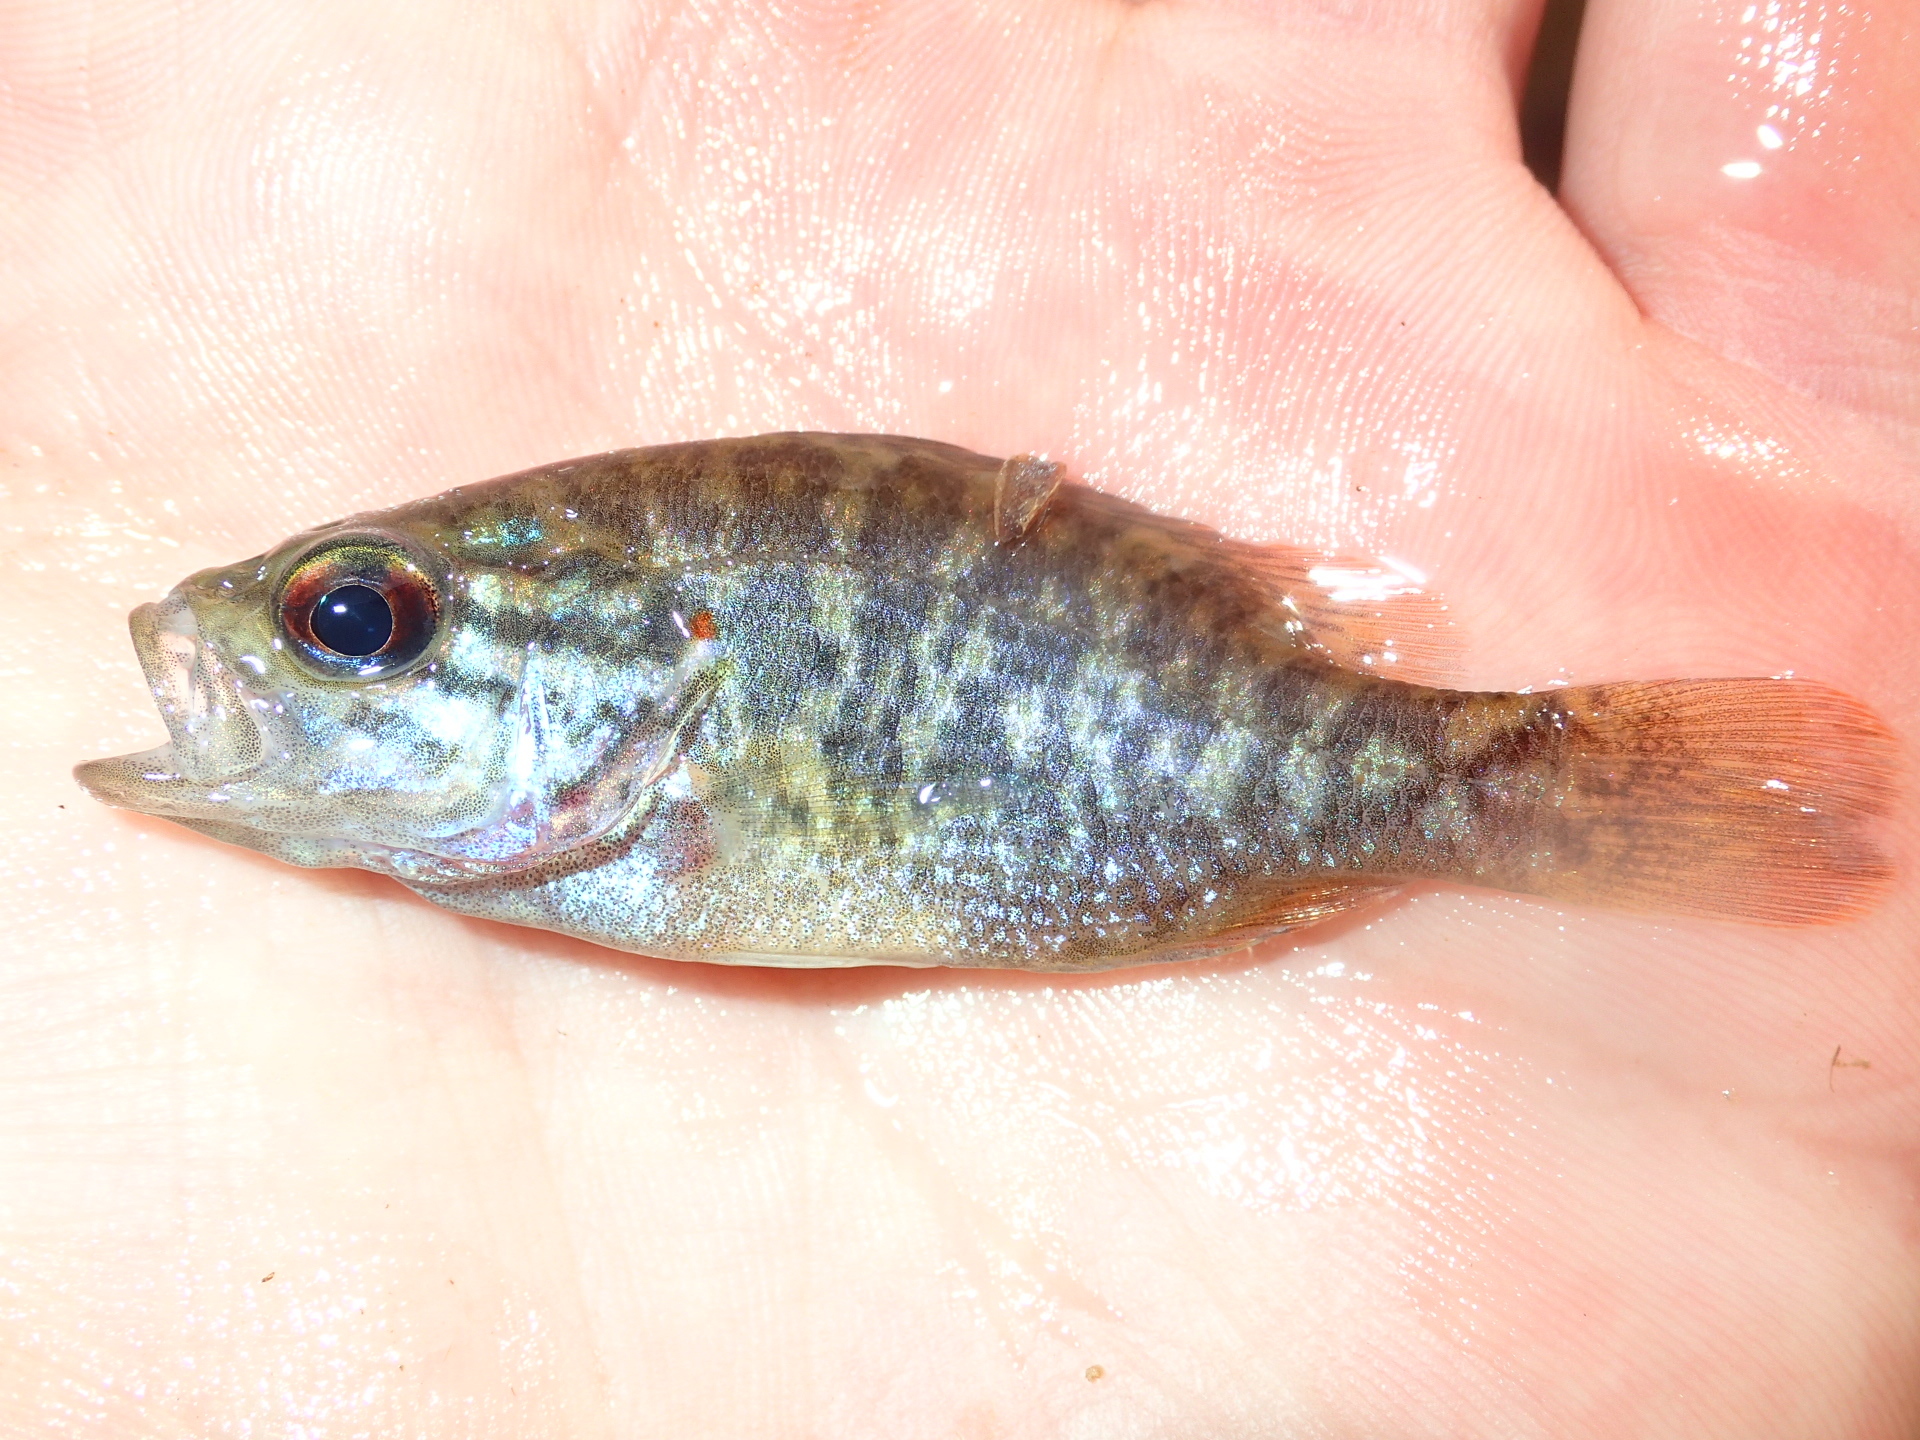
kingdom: Animalia
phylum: Chordata
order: Perciformes
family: Centrarchidae
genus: Lepomis
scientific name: Lepomis gulosus
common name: Warmouth
